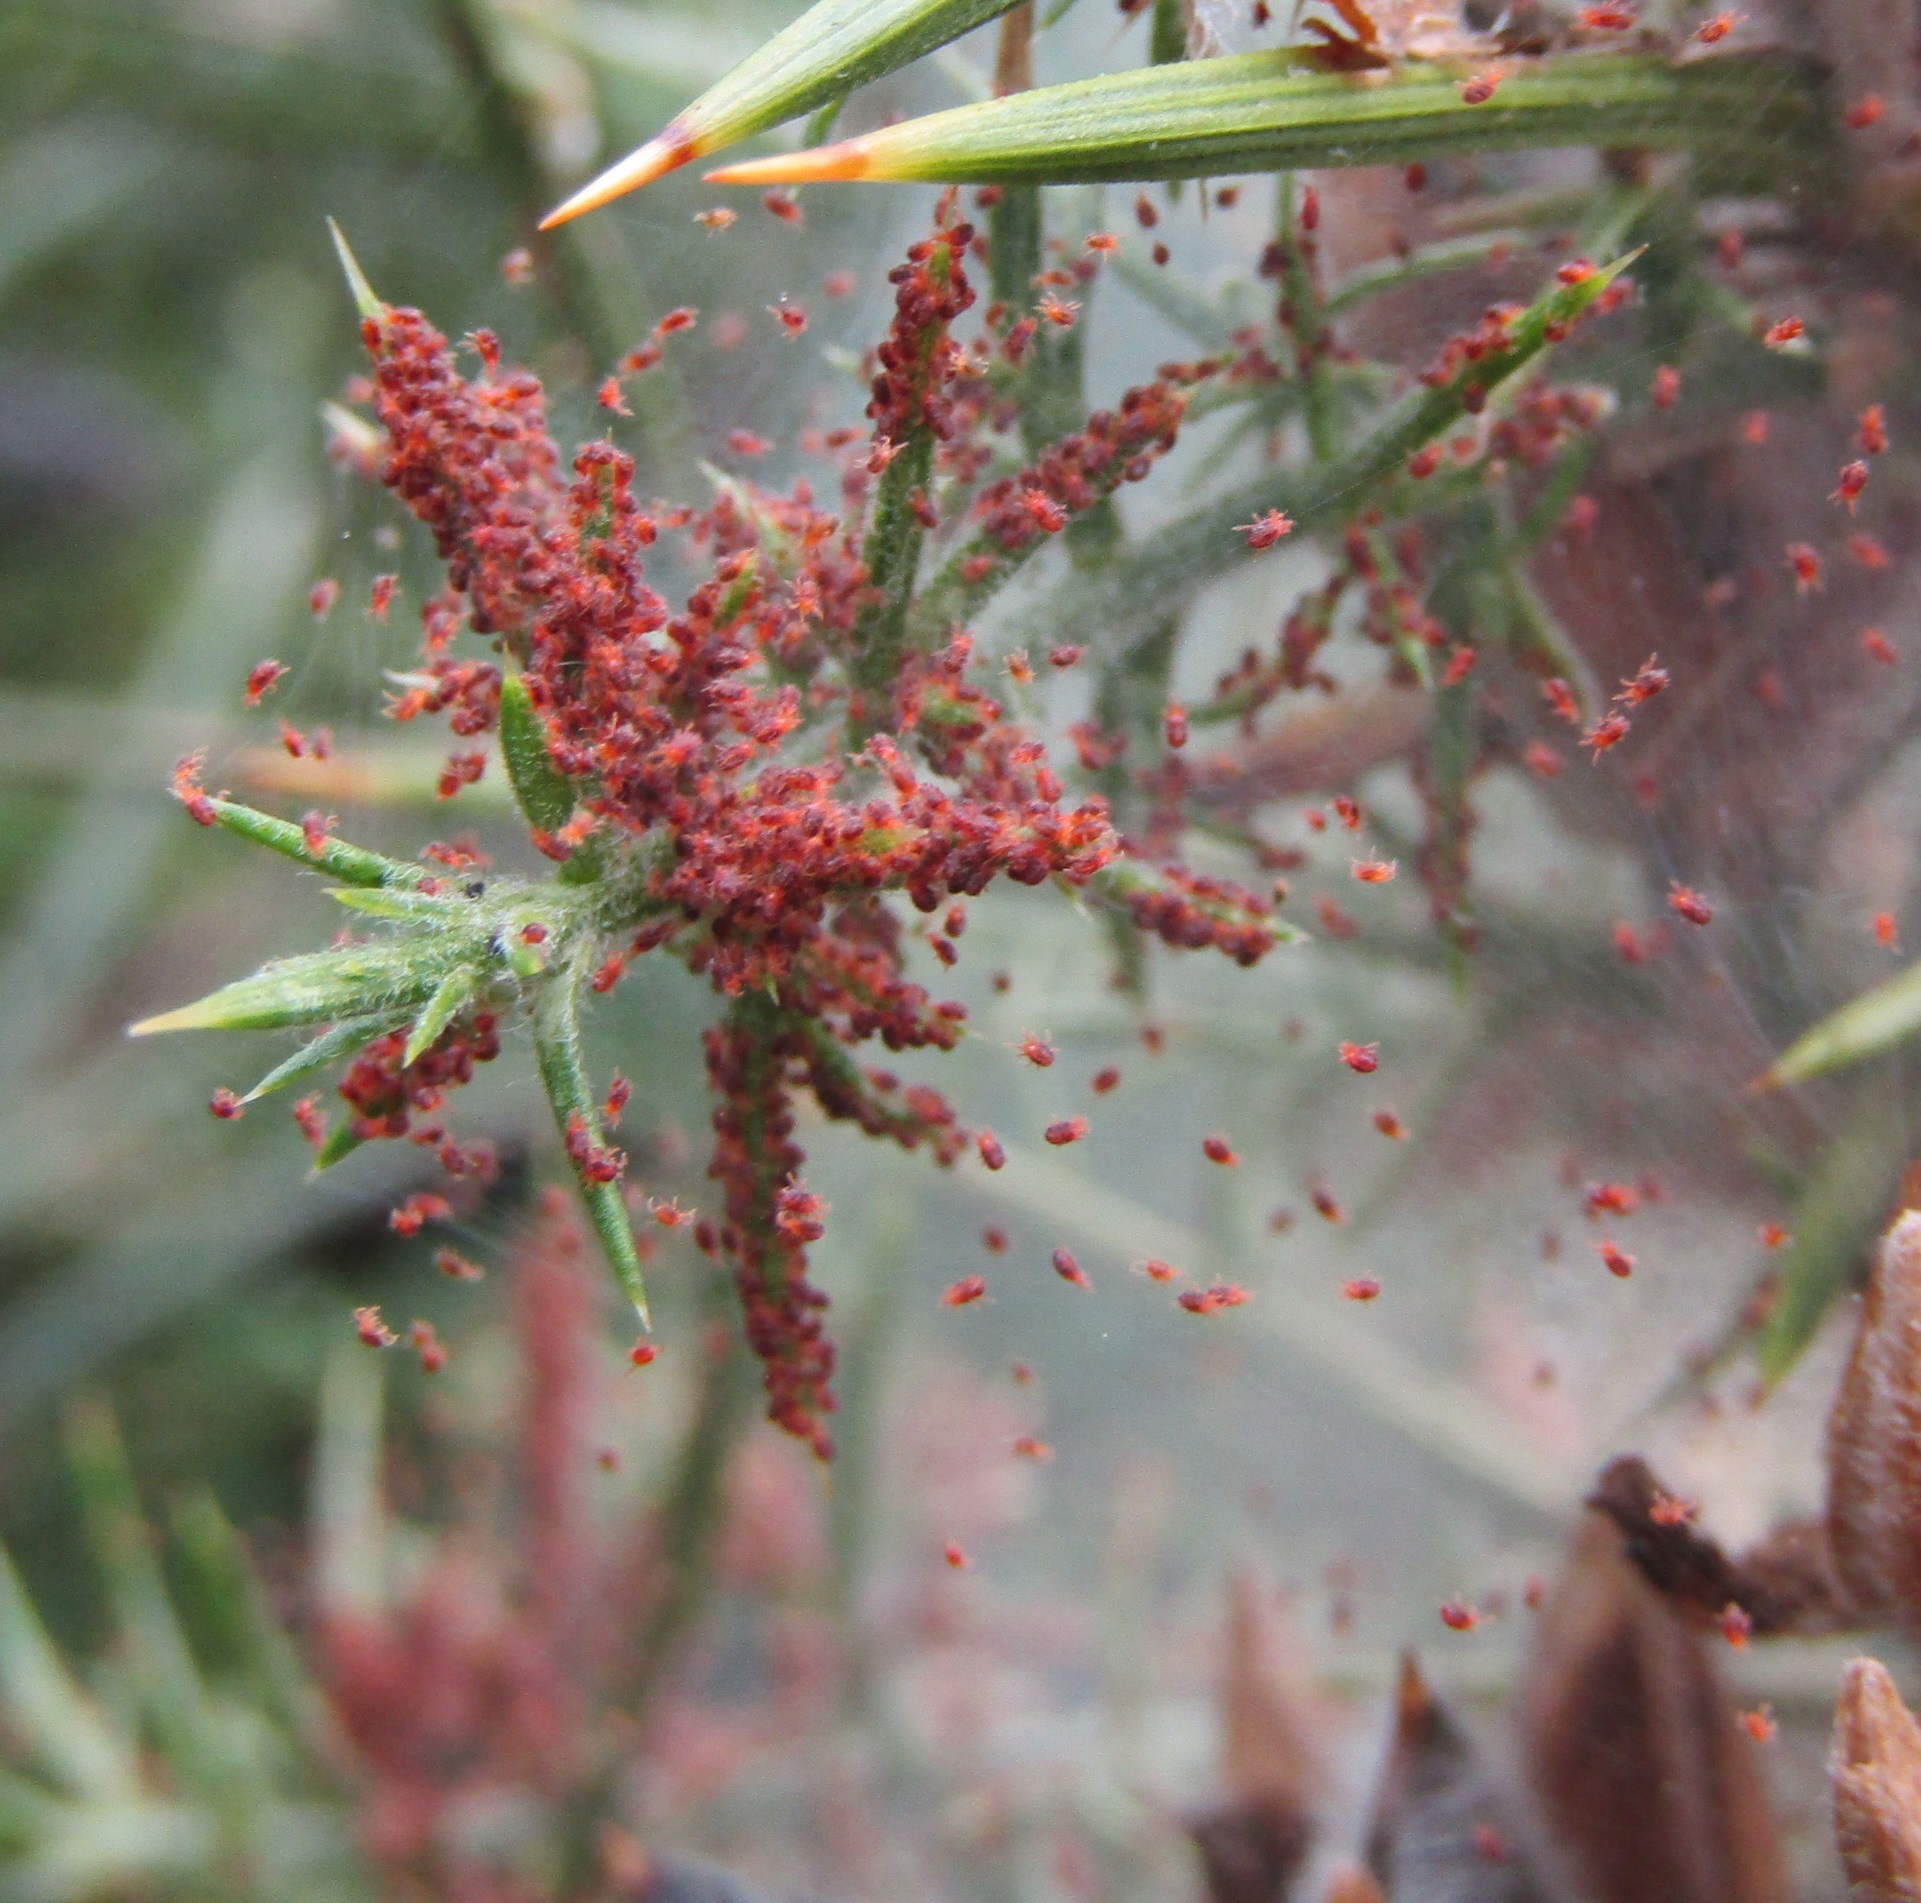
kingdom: Animalia
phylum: Arthropoda
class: Arachnida
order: Trombidiformes
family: Tetranychidae
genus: Tetranychus
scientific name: Tetranychus lintearius
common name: Gorse spider mite
